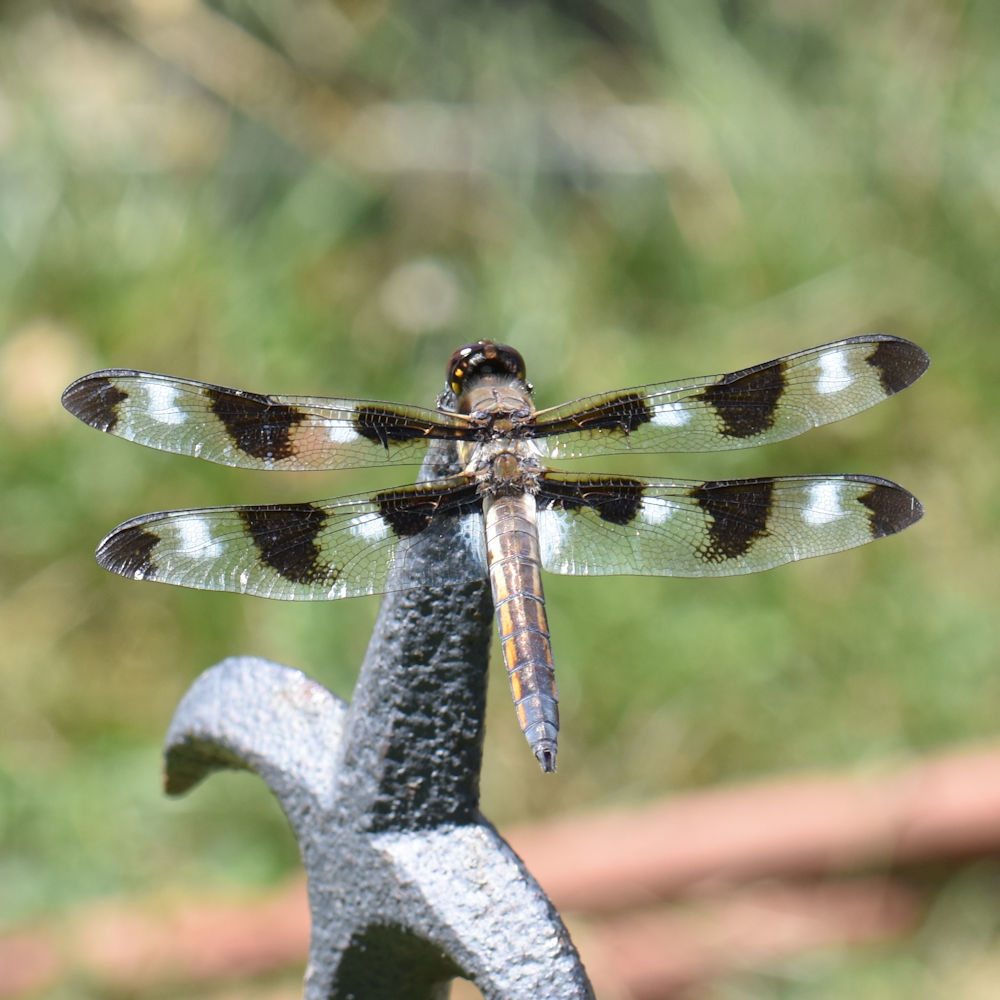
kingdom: Animalia
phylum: Arthropoda
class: Insecta
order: Odonata
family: Libellulidae
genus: Libellula
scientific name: Libellula pulchella
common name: Twelve-spotted skimmer
